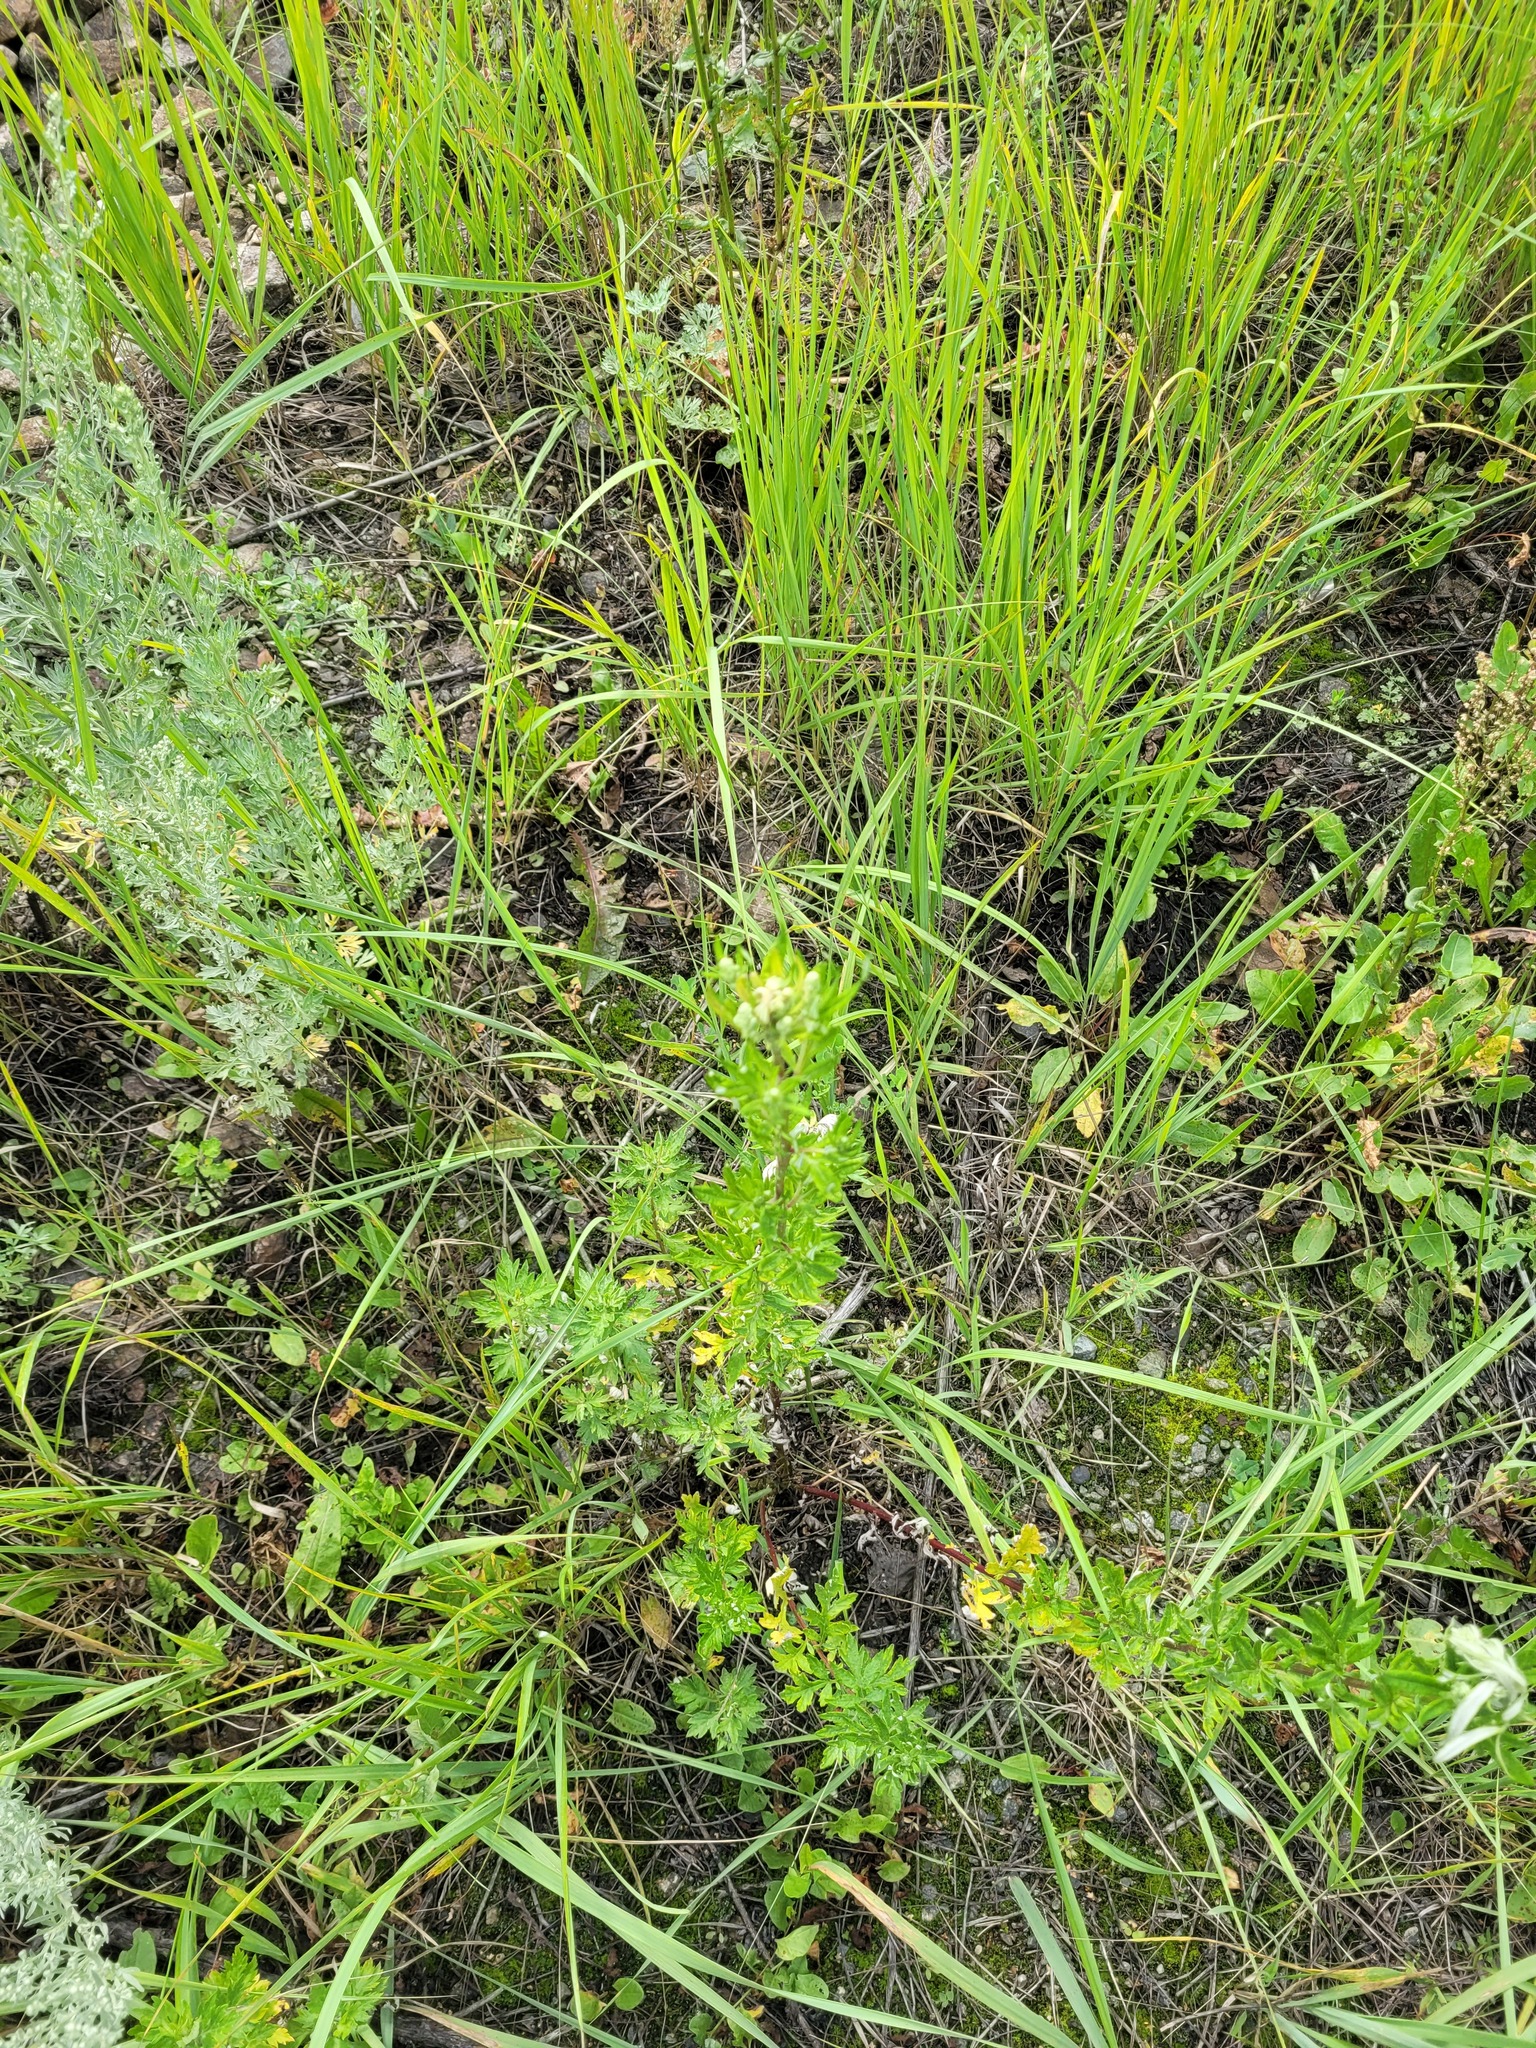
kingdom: Plantae
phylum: Tracheophyta
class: Magnoliopsida
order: Asterales
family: Asteraceae
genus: Artemisia
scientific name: Artemisia vulgaris
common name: Mugwort
